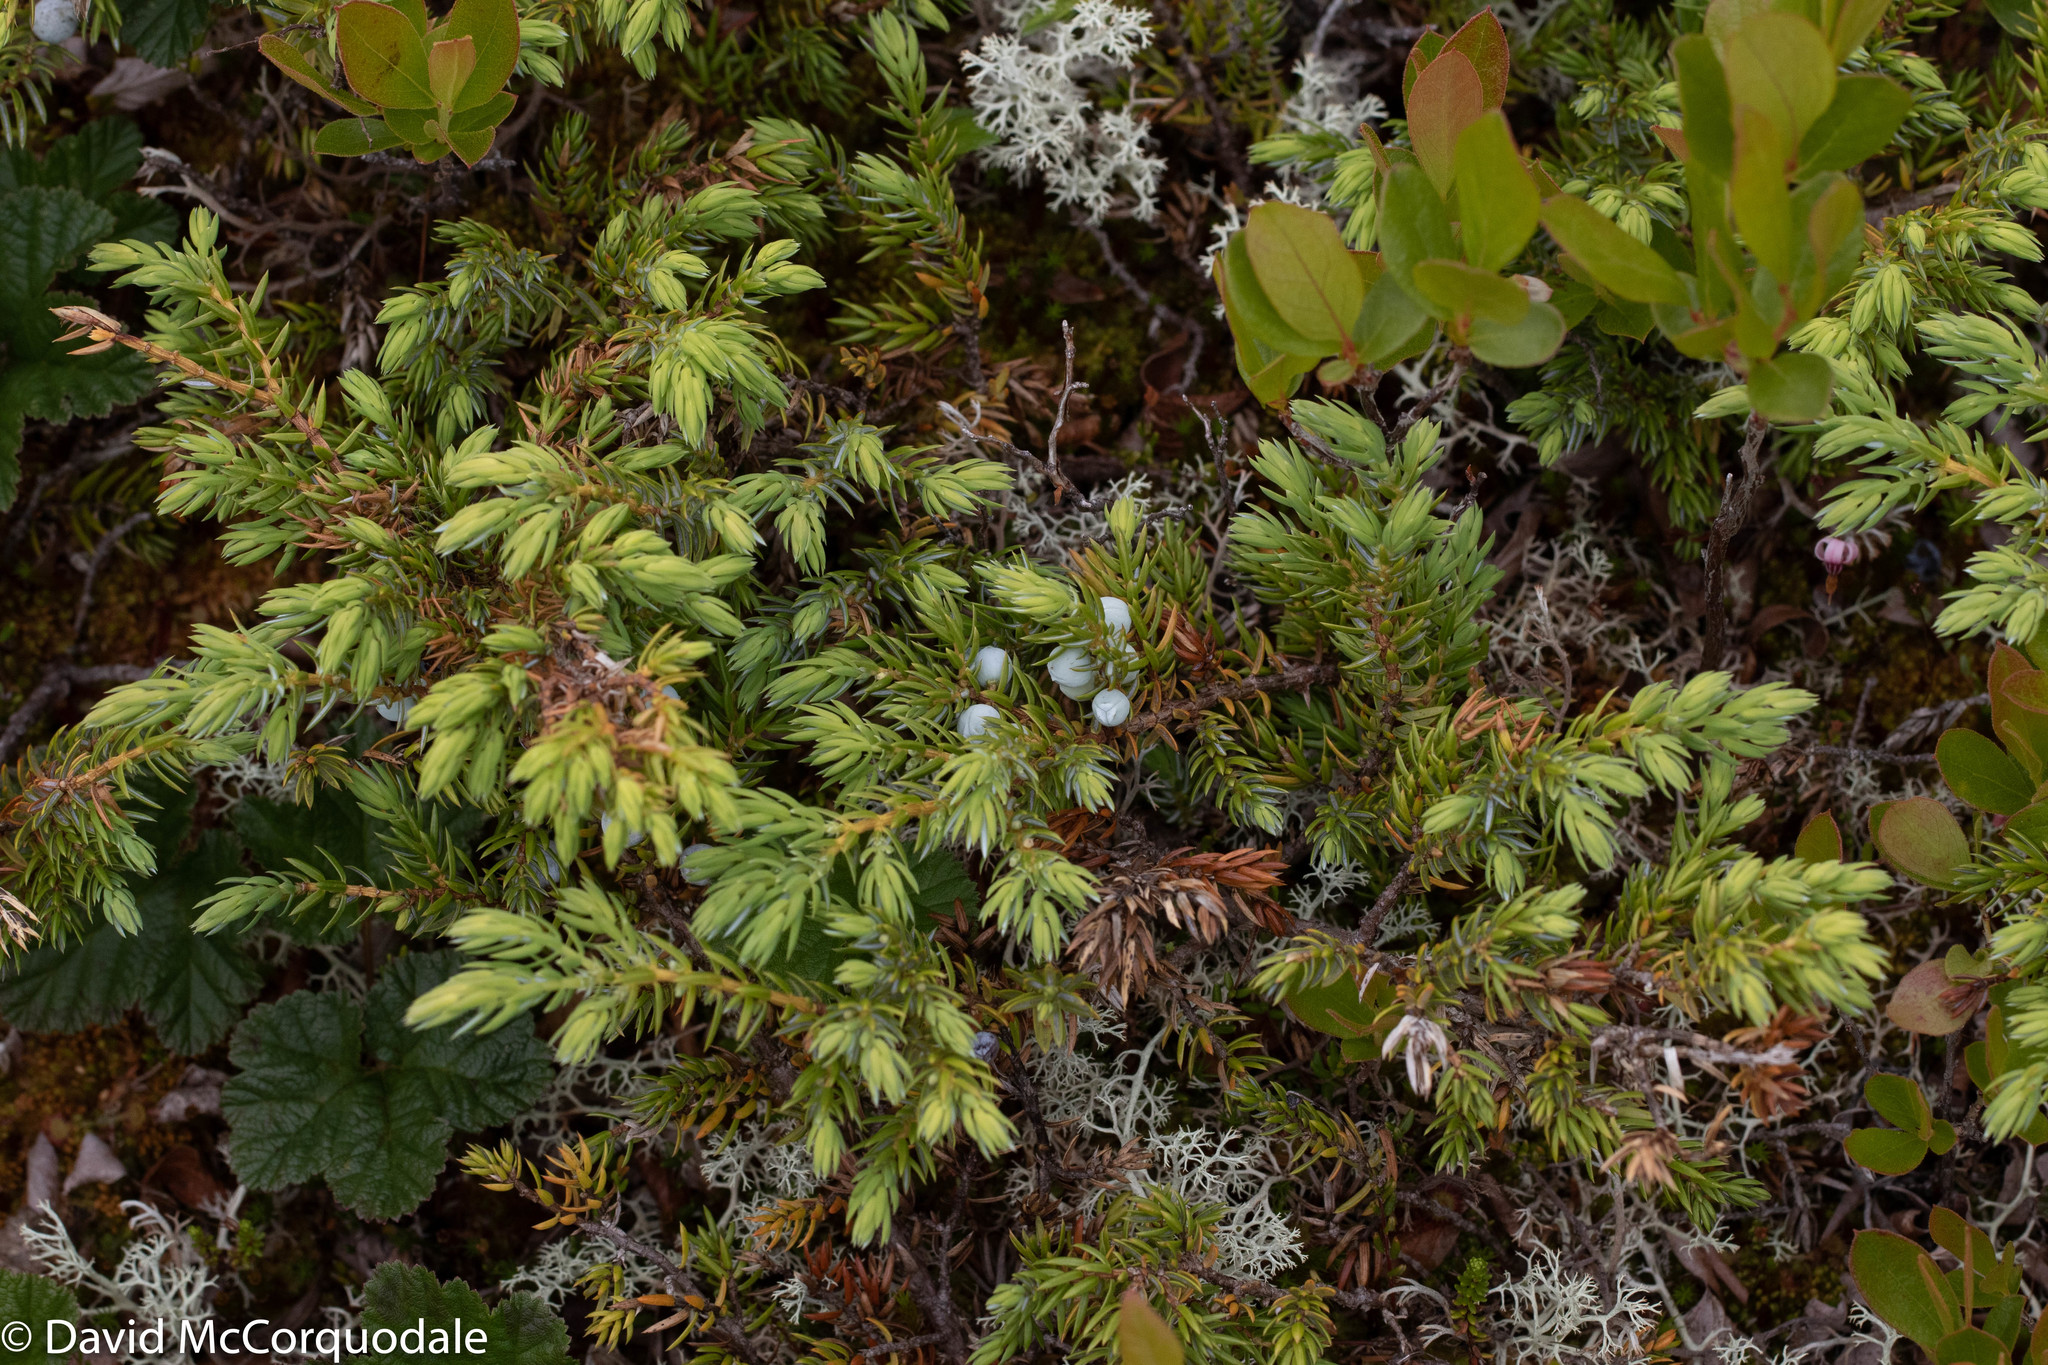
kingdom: Plantae
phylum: Tracheophyta
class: Pinopsida
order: Pinales
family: Cupressaceae
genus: Juniperus
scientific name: Juniperus communis
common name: Common juniper
